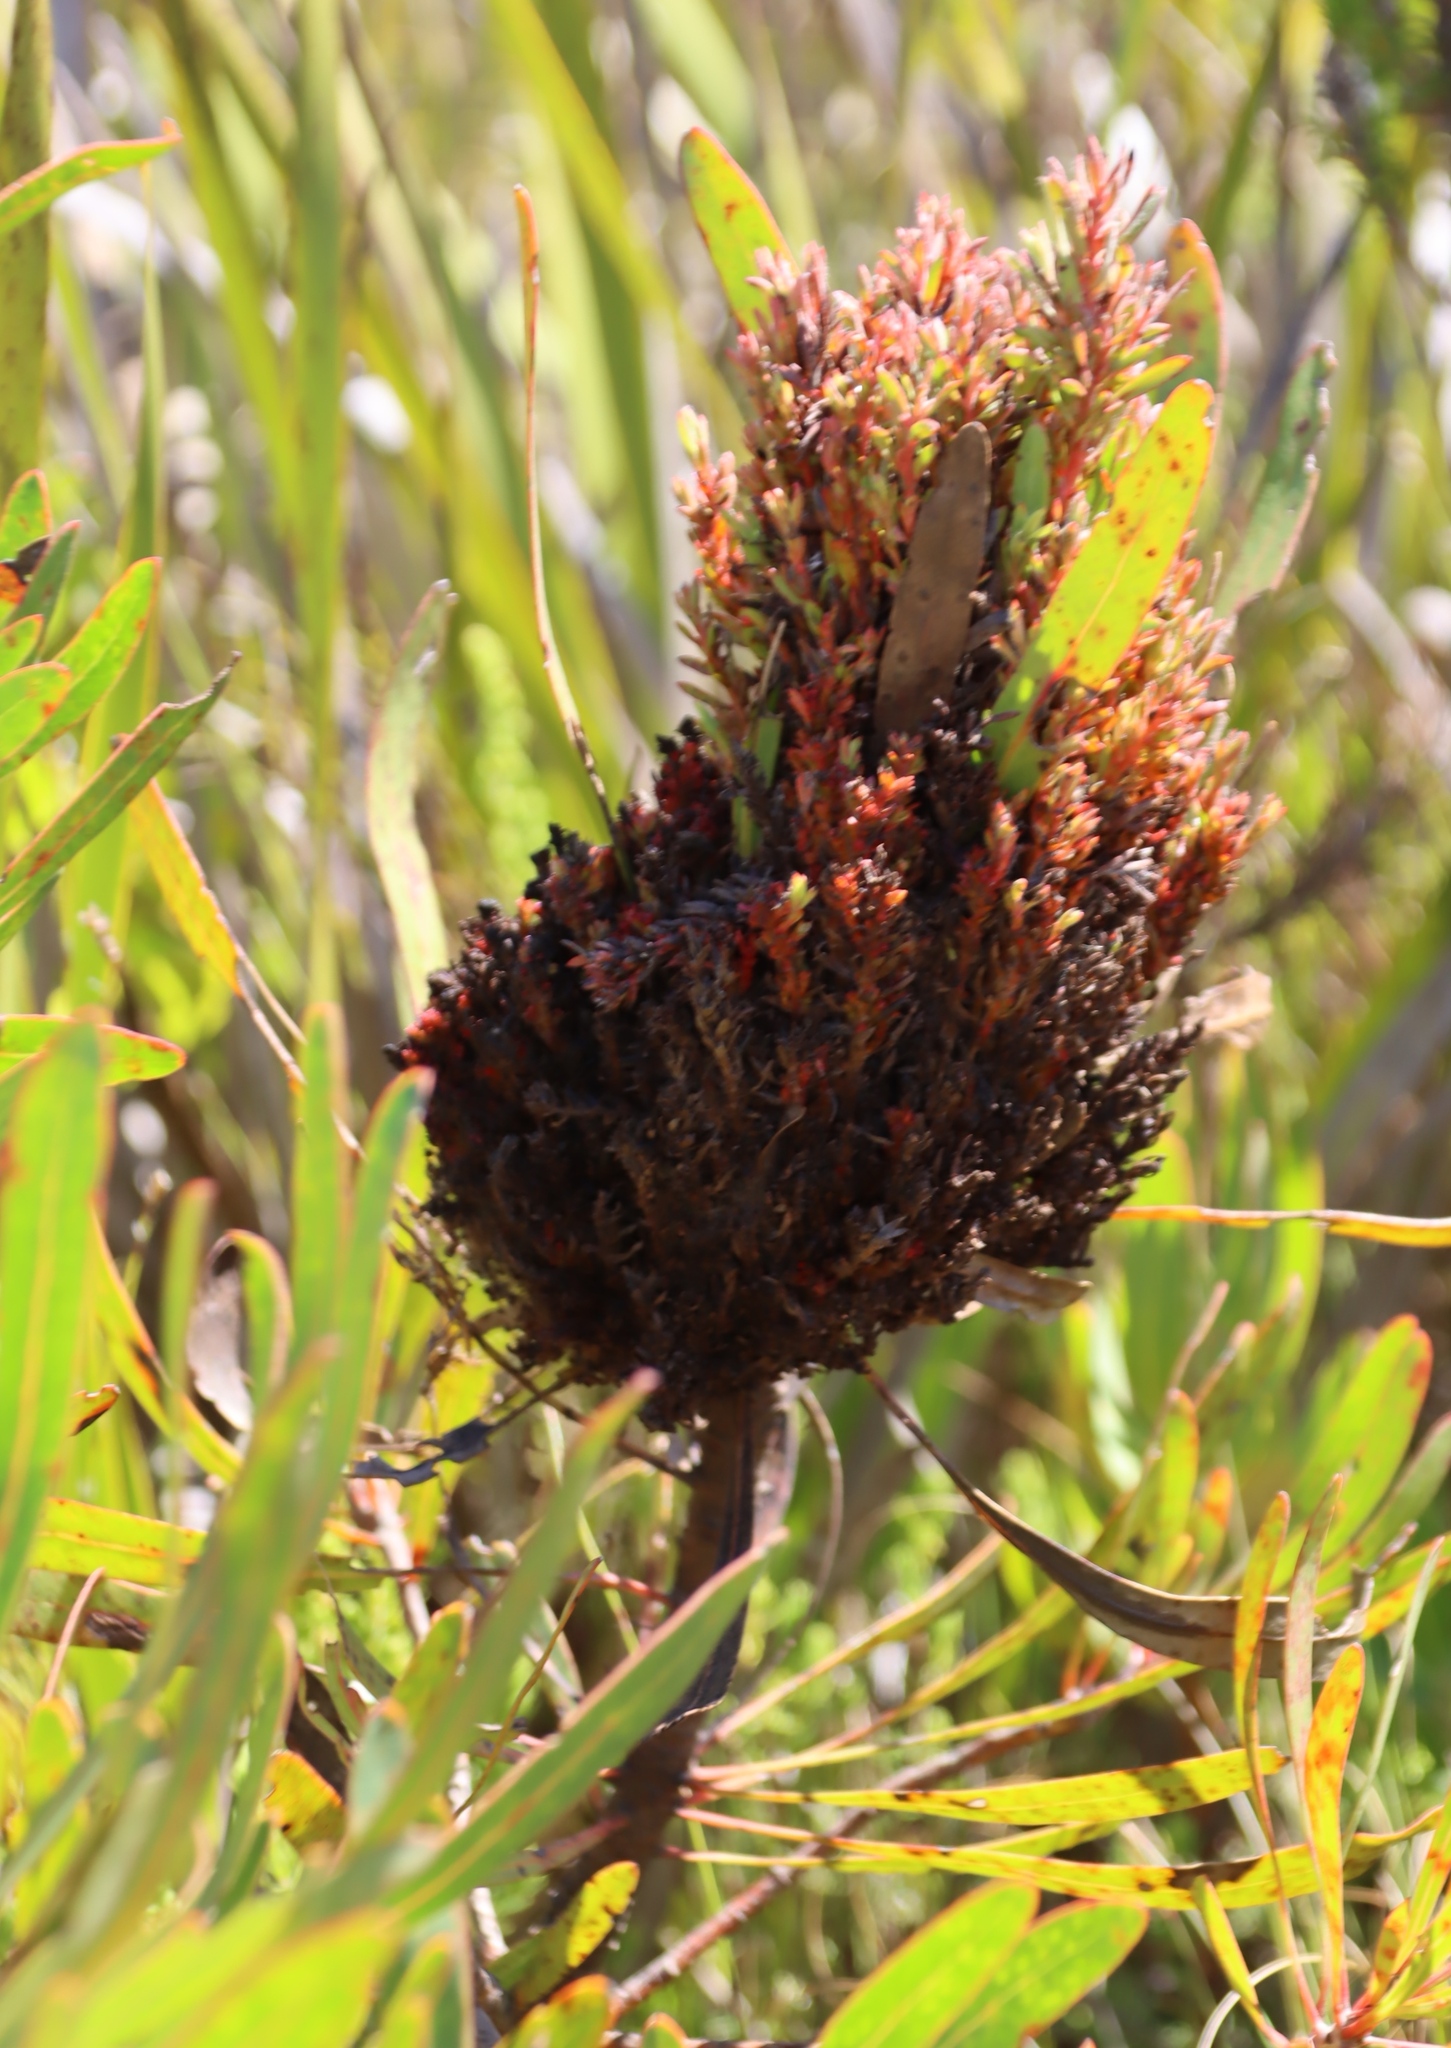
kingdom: Bacteria
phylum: Firmicutes
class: Bacilli
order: Acholeplasmatales
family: Acholeplasmataceae
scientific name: Acholeplasmataceae
